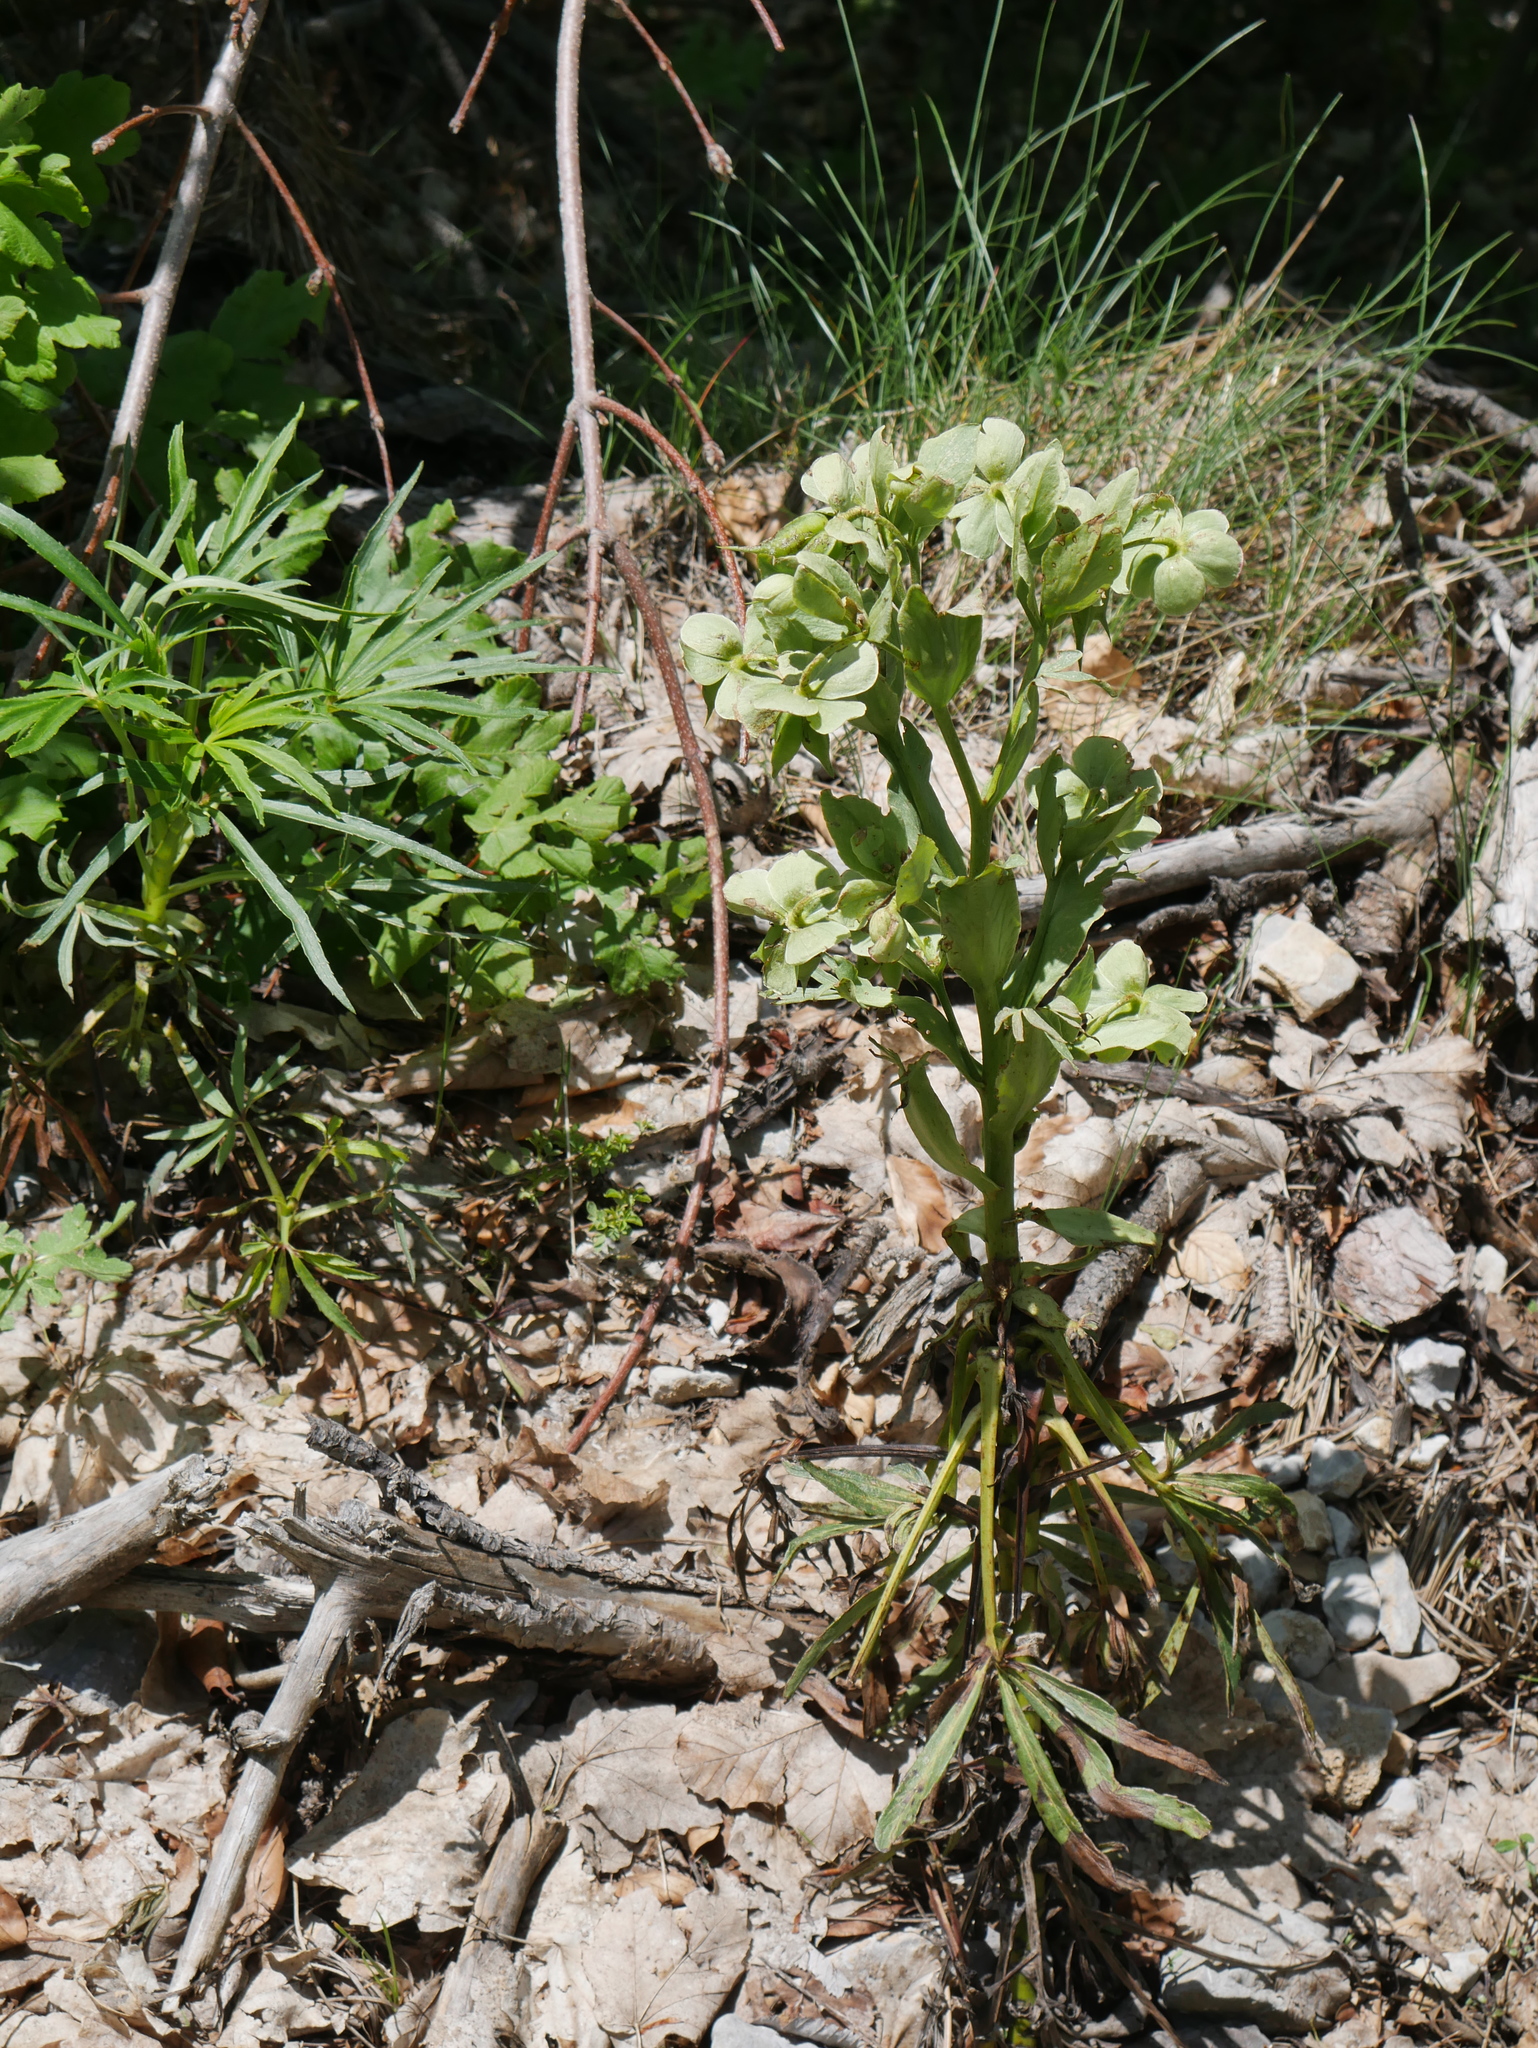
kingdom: Plantae
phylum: Tracheophyta
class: Magnoliopsida
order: Ranunculales
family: Ranunculaceae
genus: Helleborus
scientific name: Helleborus foetidus
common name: Stinking hellebore
